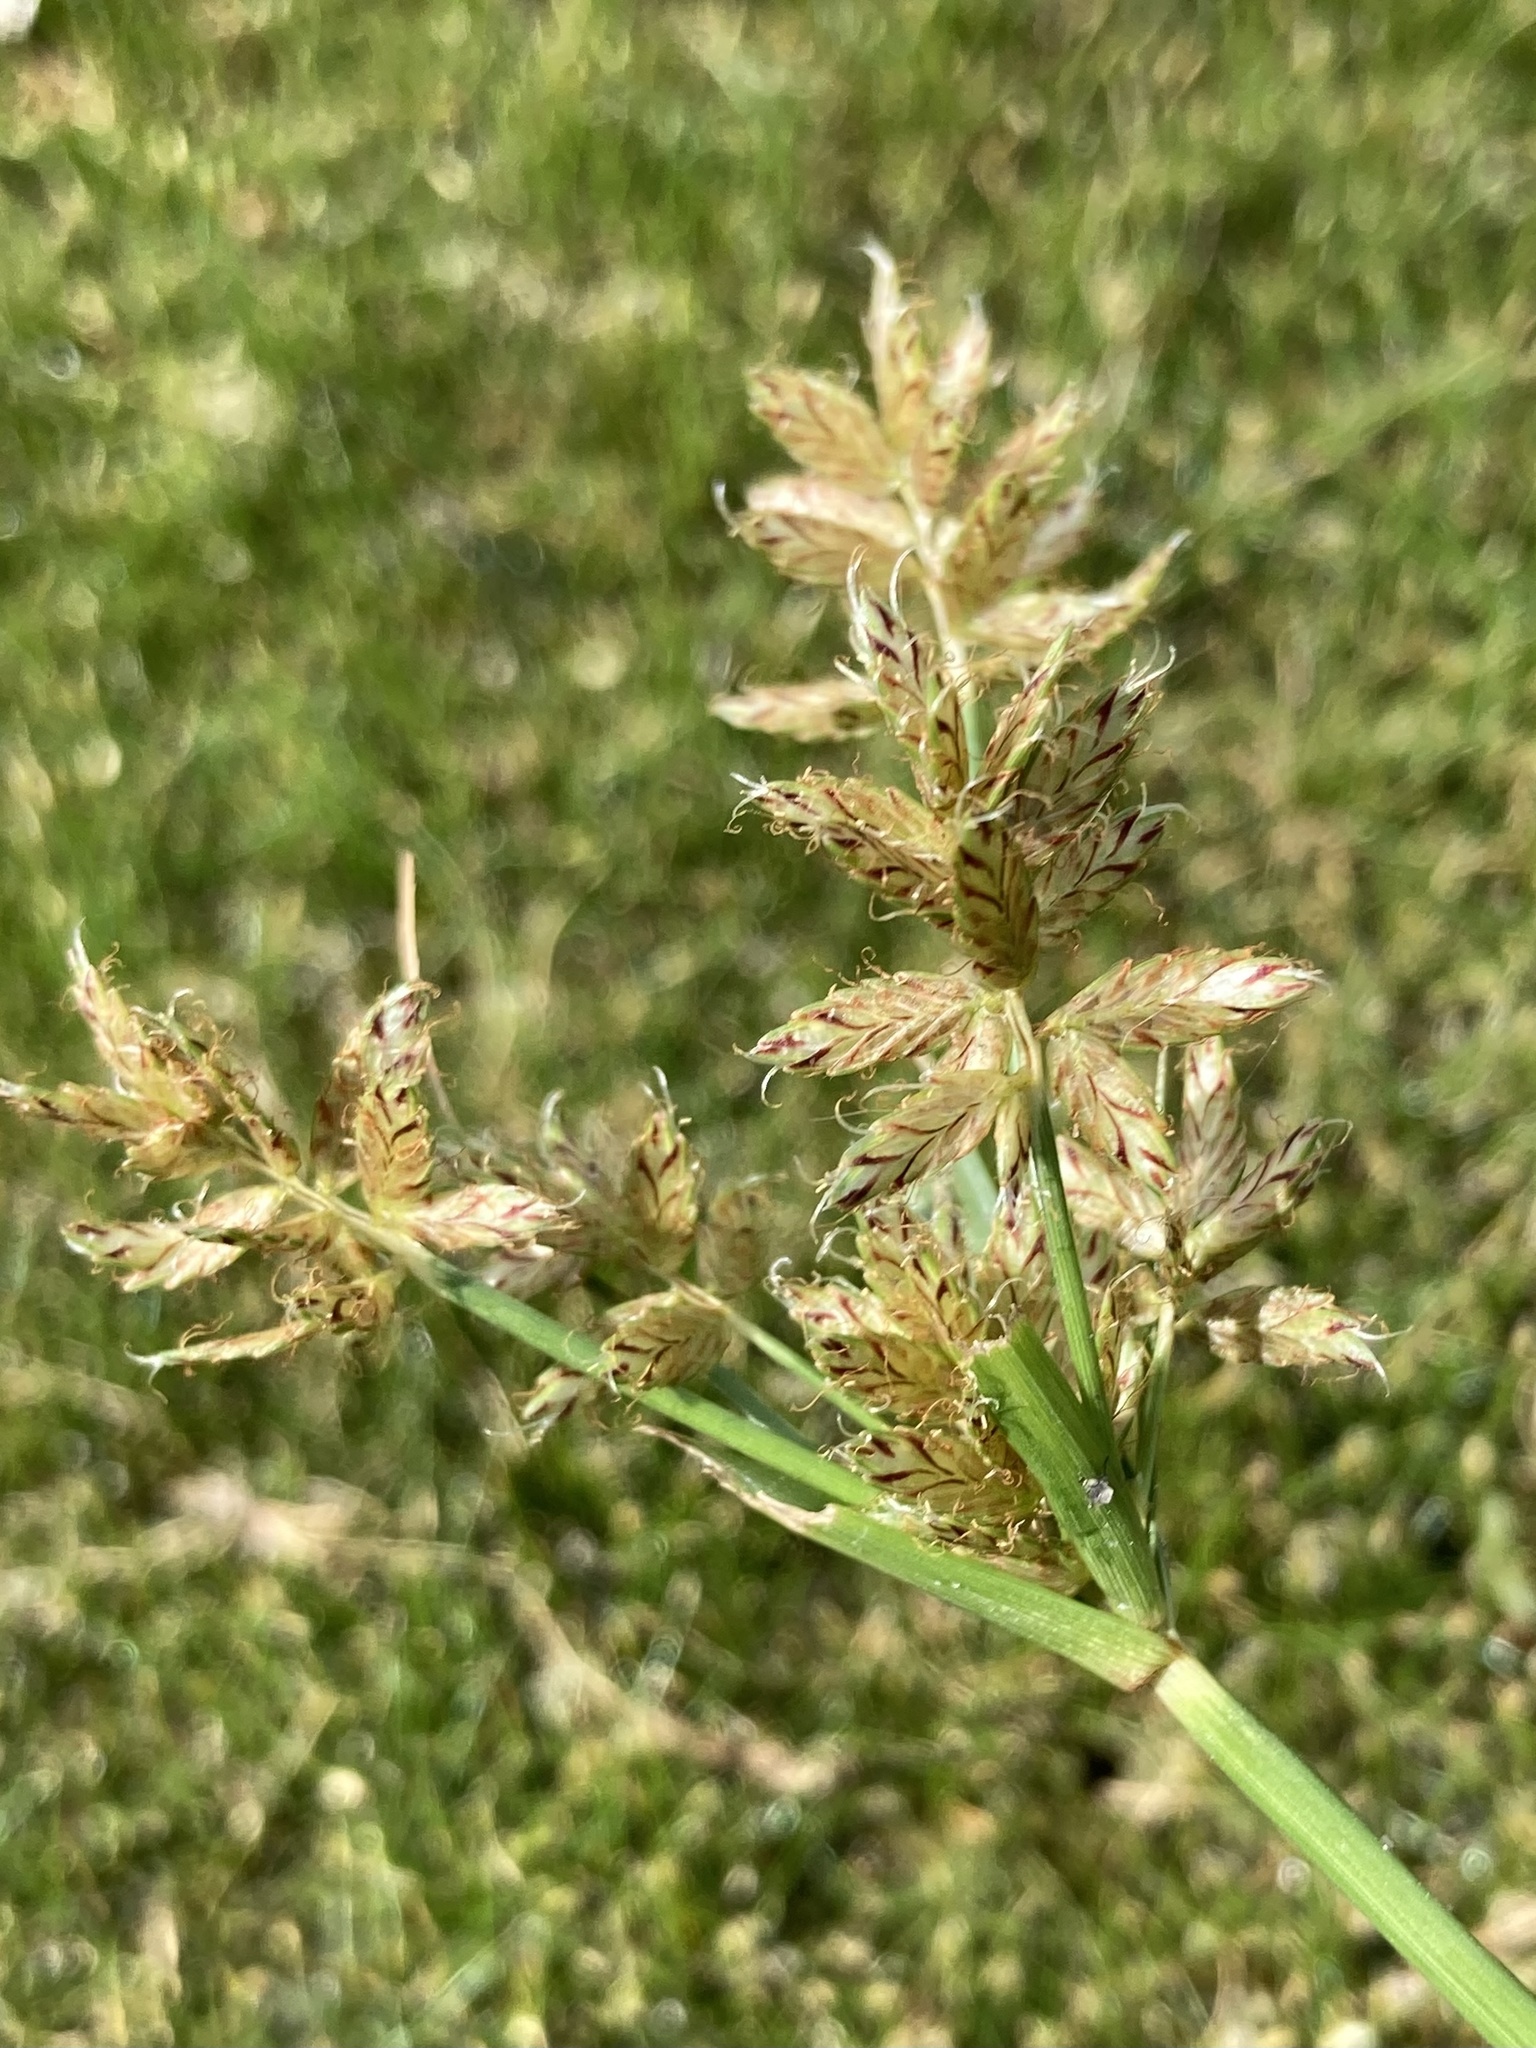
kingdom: Plantae
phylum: Tracheophyta
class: Liliopsida
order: Poales
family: Cyperaceae
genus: Cyperus
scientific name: Cyperus diandrus
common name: Low cyperus
